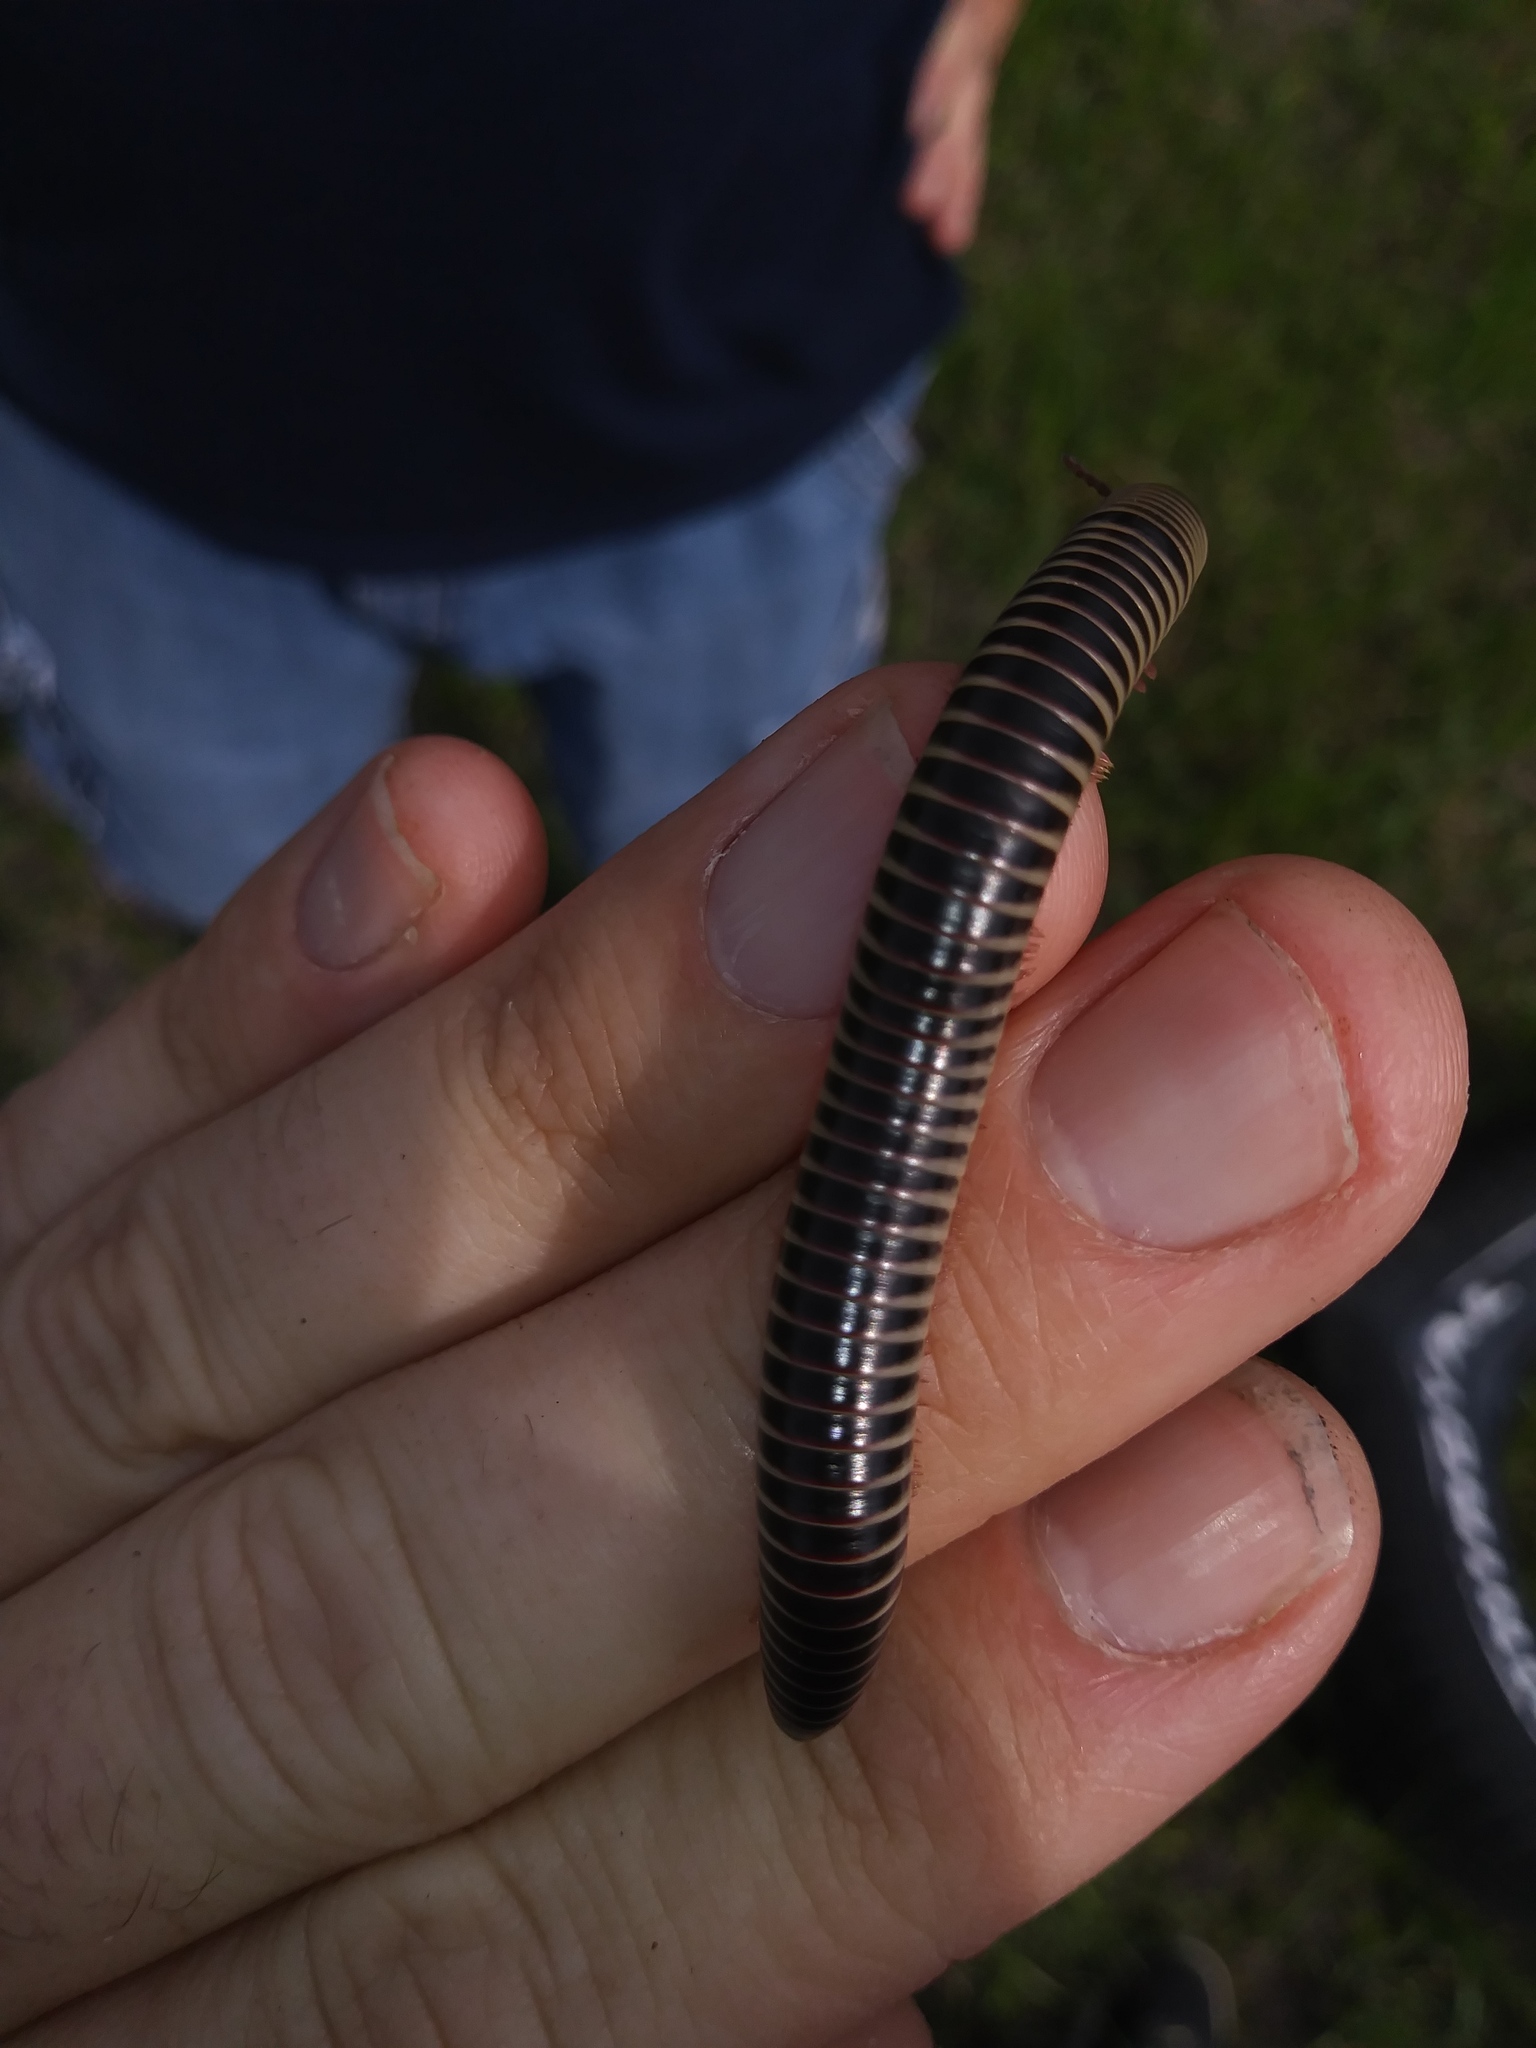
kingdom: Animalia
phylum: Arthropoda
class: Diplopoda
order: Spirobolida
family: Spirobolidae
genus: Chicobolus
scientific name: Chicobolus spinigerus
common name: Florida ivory millipede
